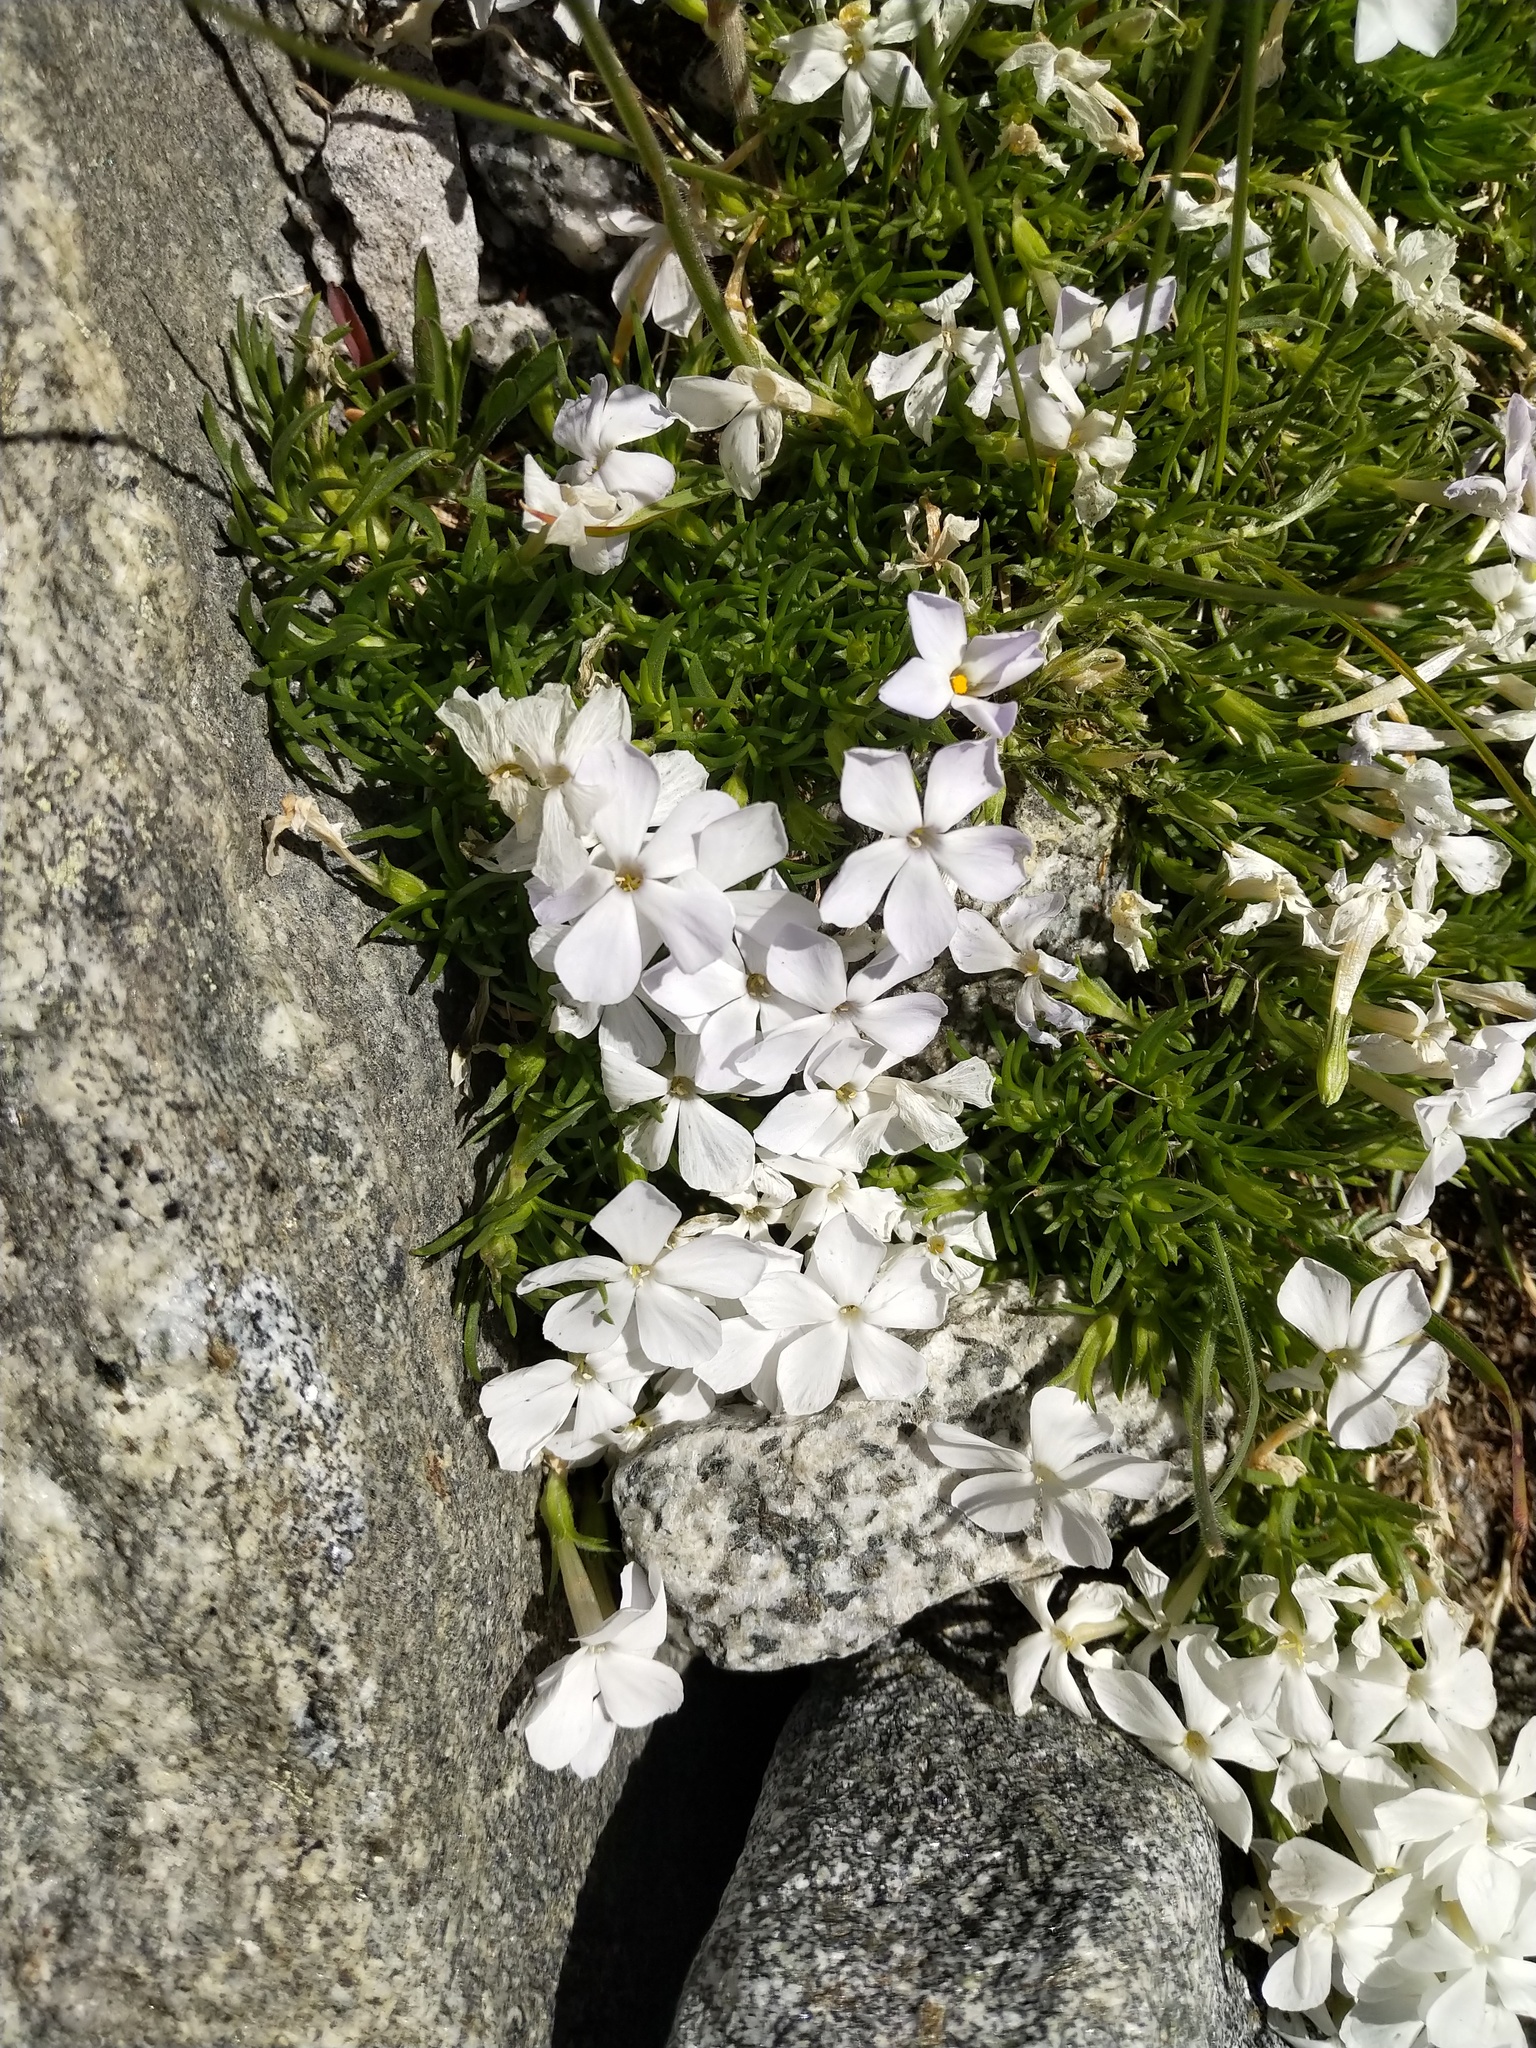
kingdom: Plantae
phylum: Tracheophyta
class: Magnoliopsida
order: Ericales
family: Polemoniaceae
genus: Phlox
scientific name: Phlox diffusa
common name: Mat phlox
